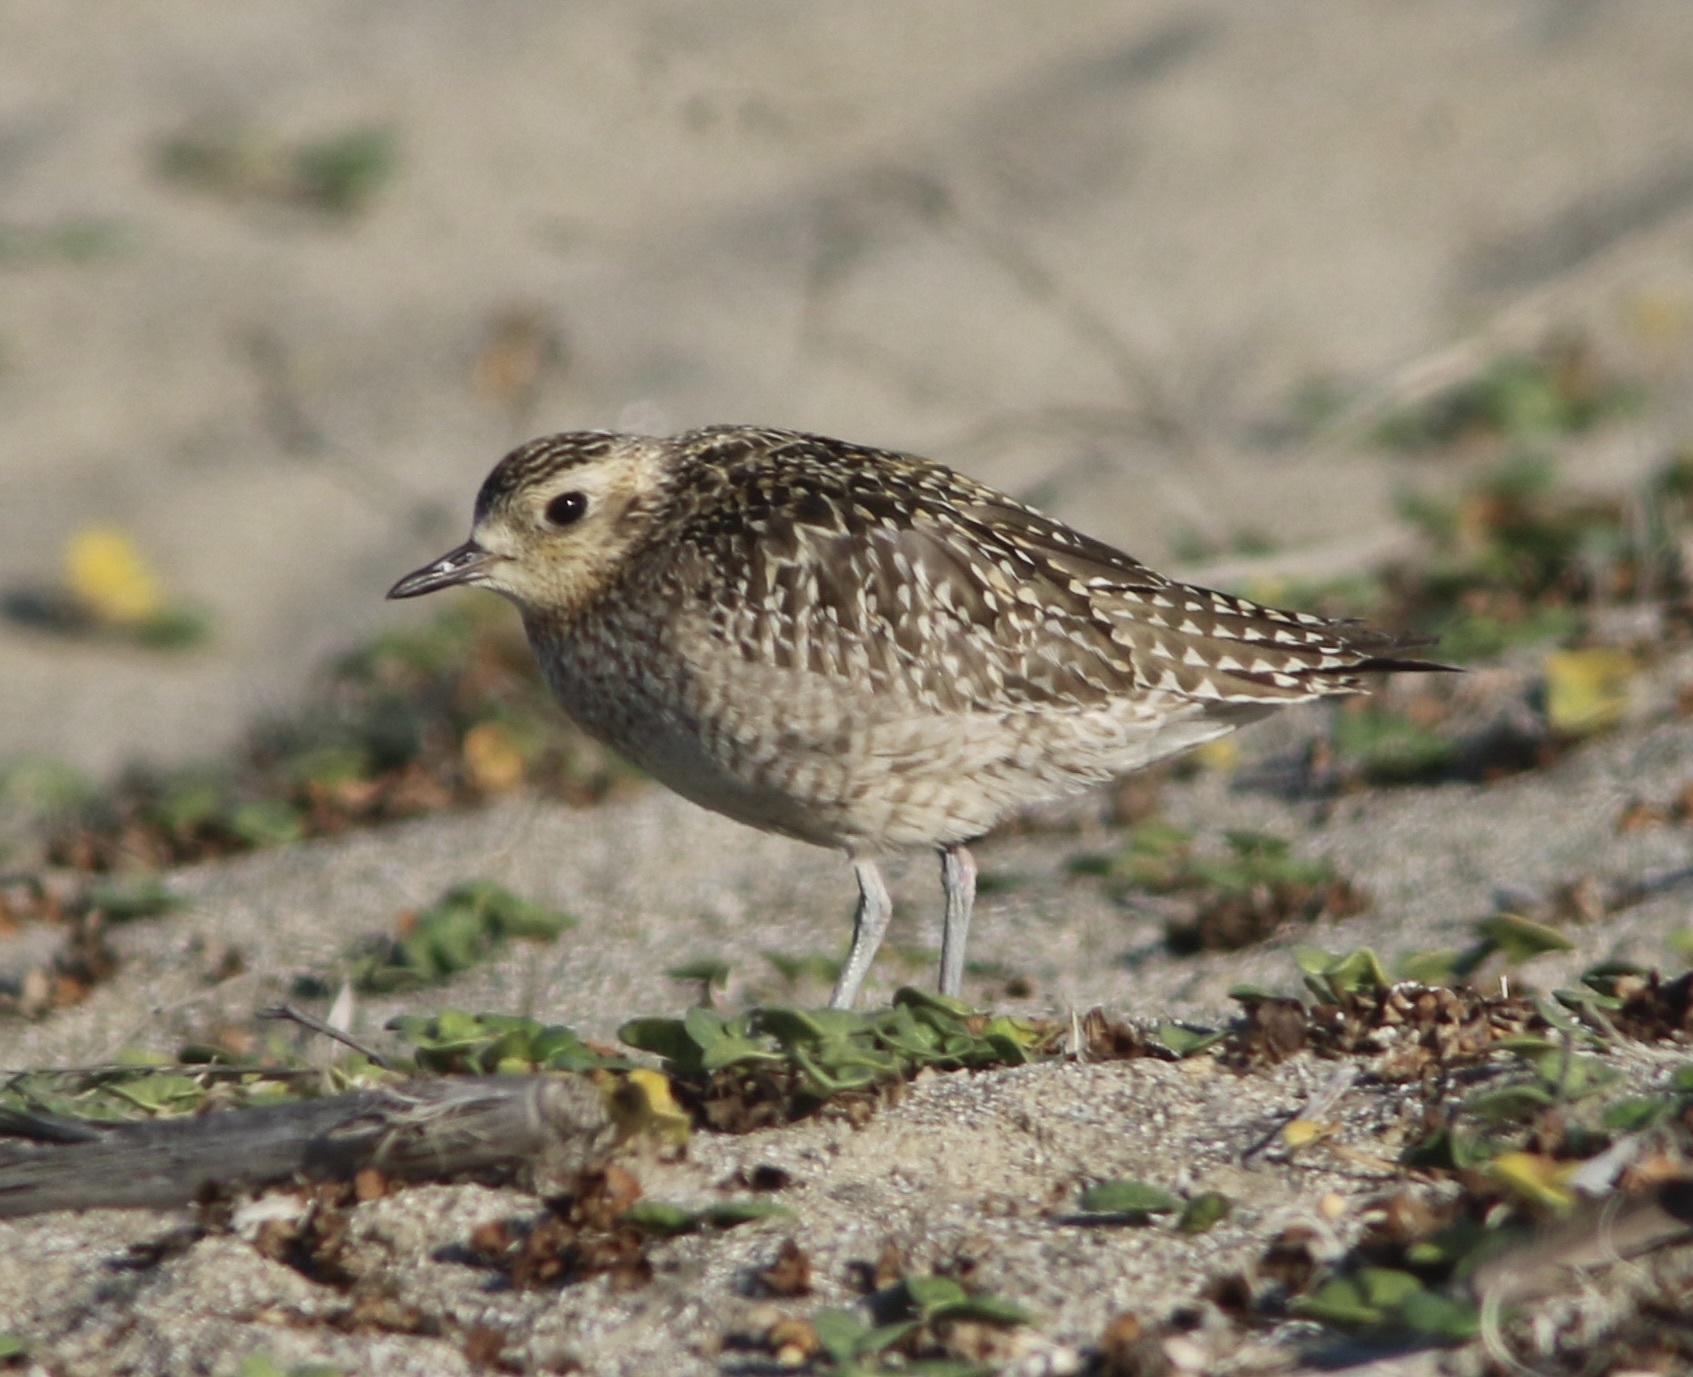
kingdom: Animalia
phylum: Chordata
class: Aves
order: Charadriiformes
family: Charadriidae
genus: Pluvialis
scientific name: Pluvialis fulva
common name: Pacific golden plover
